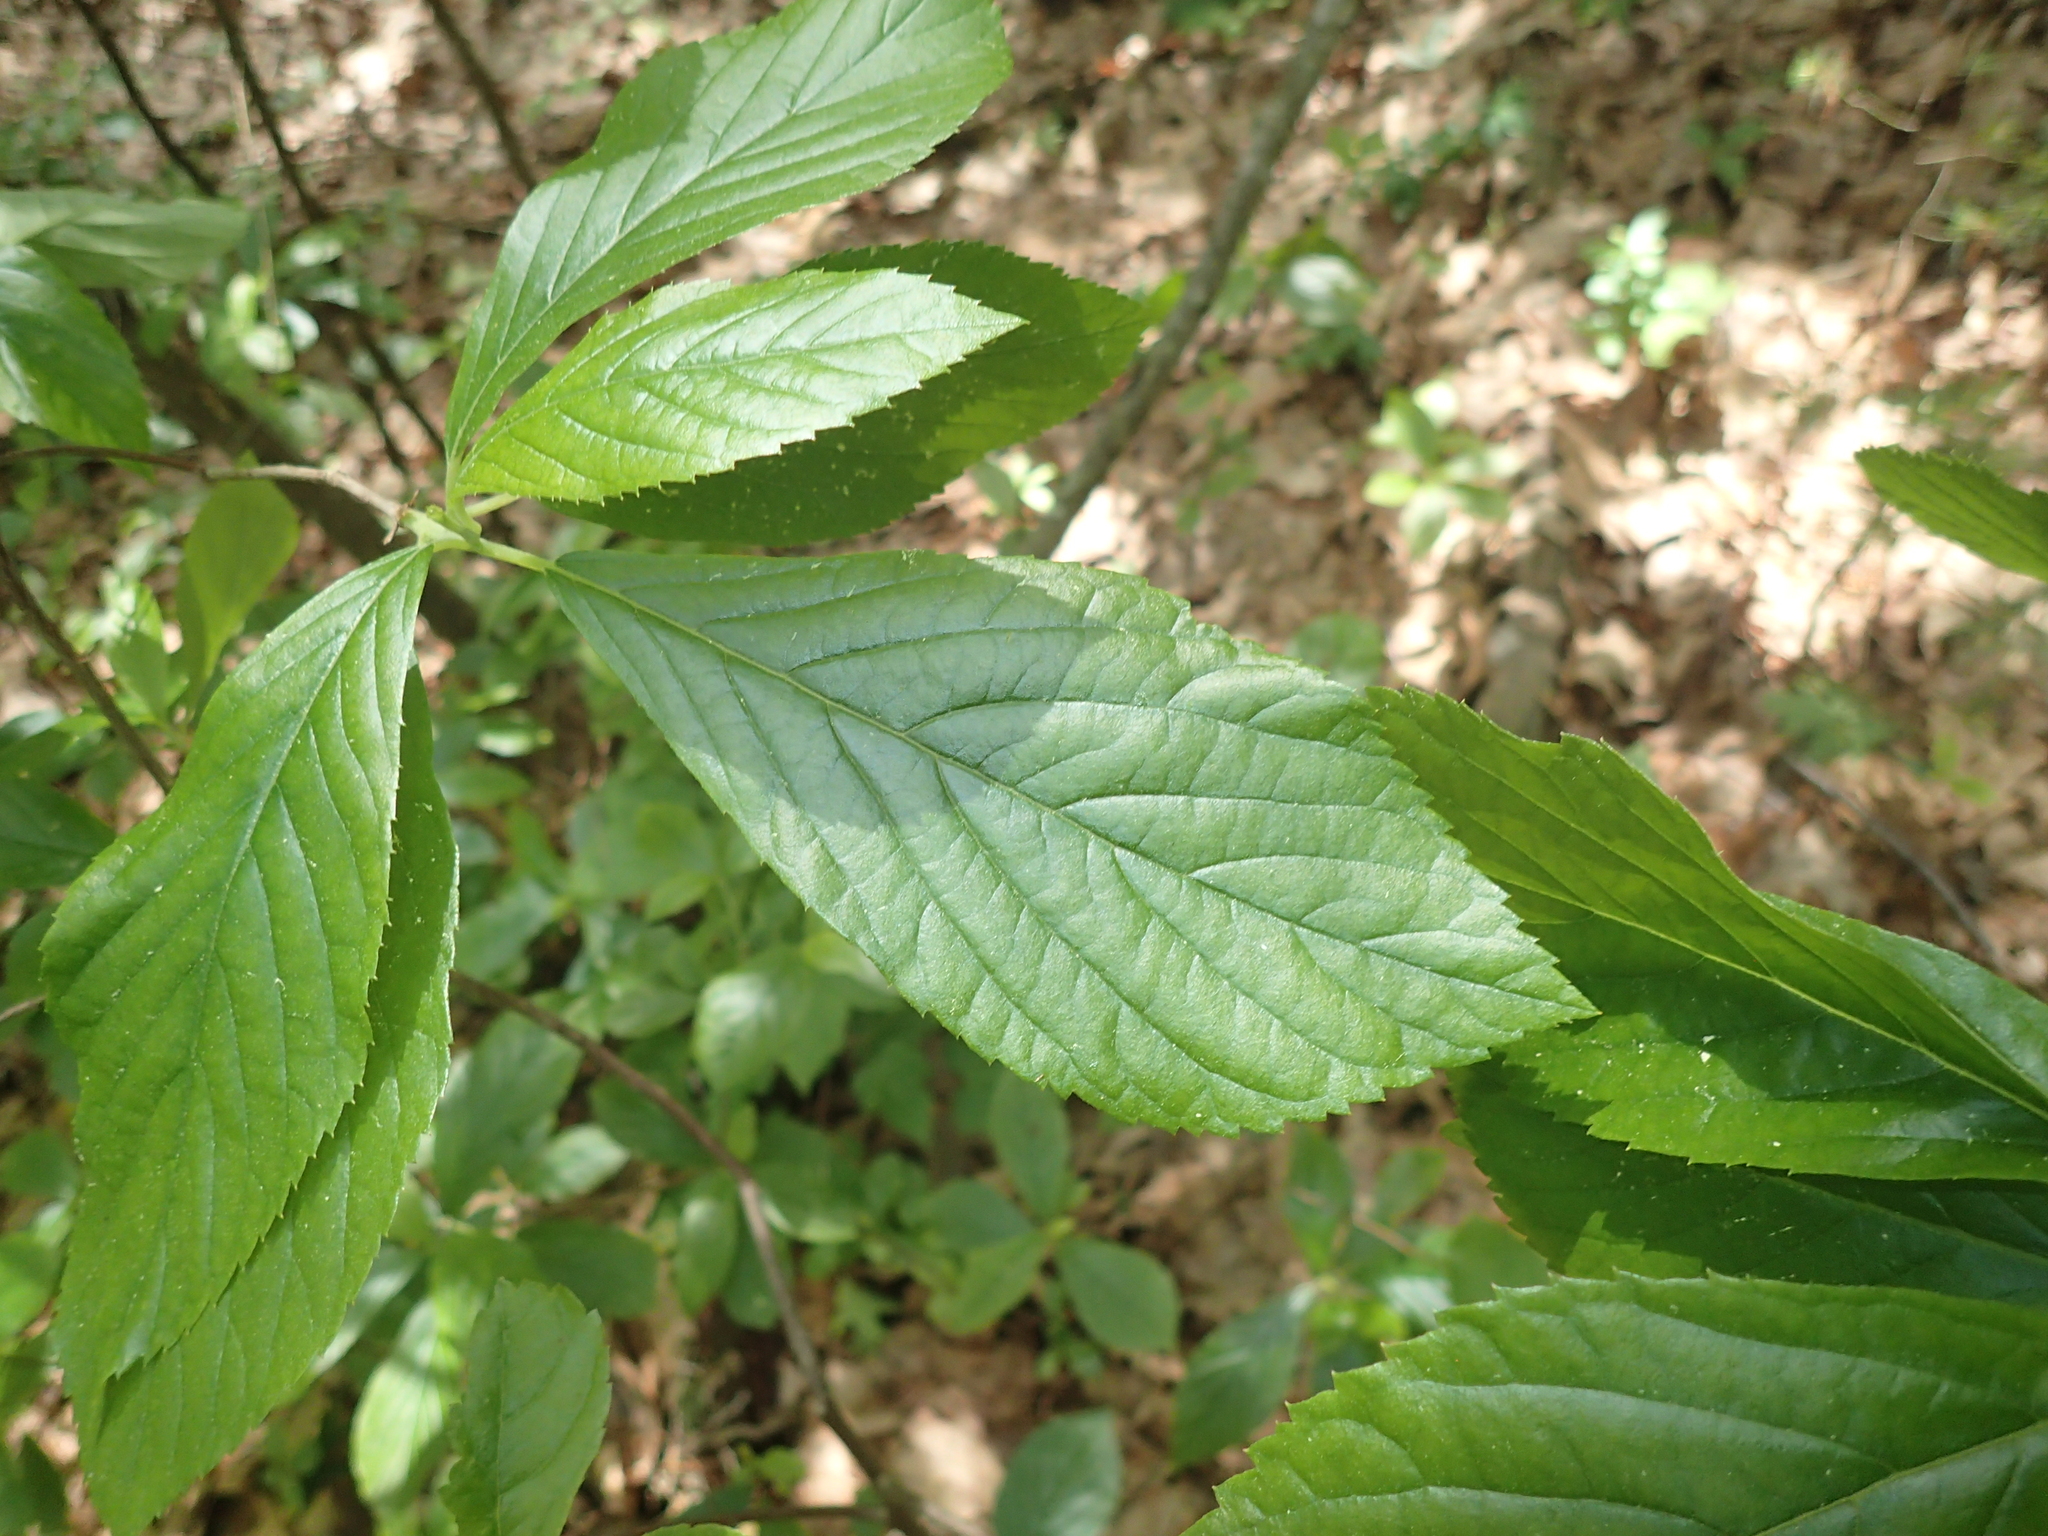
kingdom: Plantae
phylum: Tracheophyta
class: Magnoliopsida
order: Ericales
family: Clethraceae
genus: Clethra
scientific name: Clethra alnifolia
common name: Sweet pepperbush
